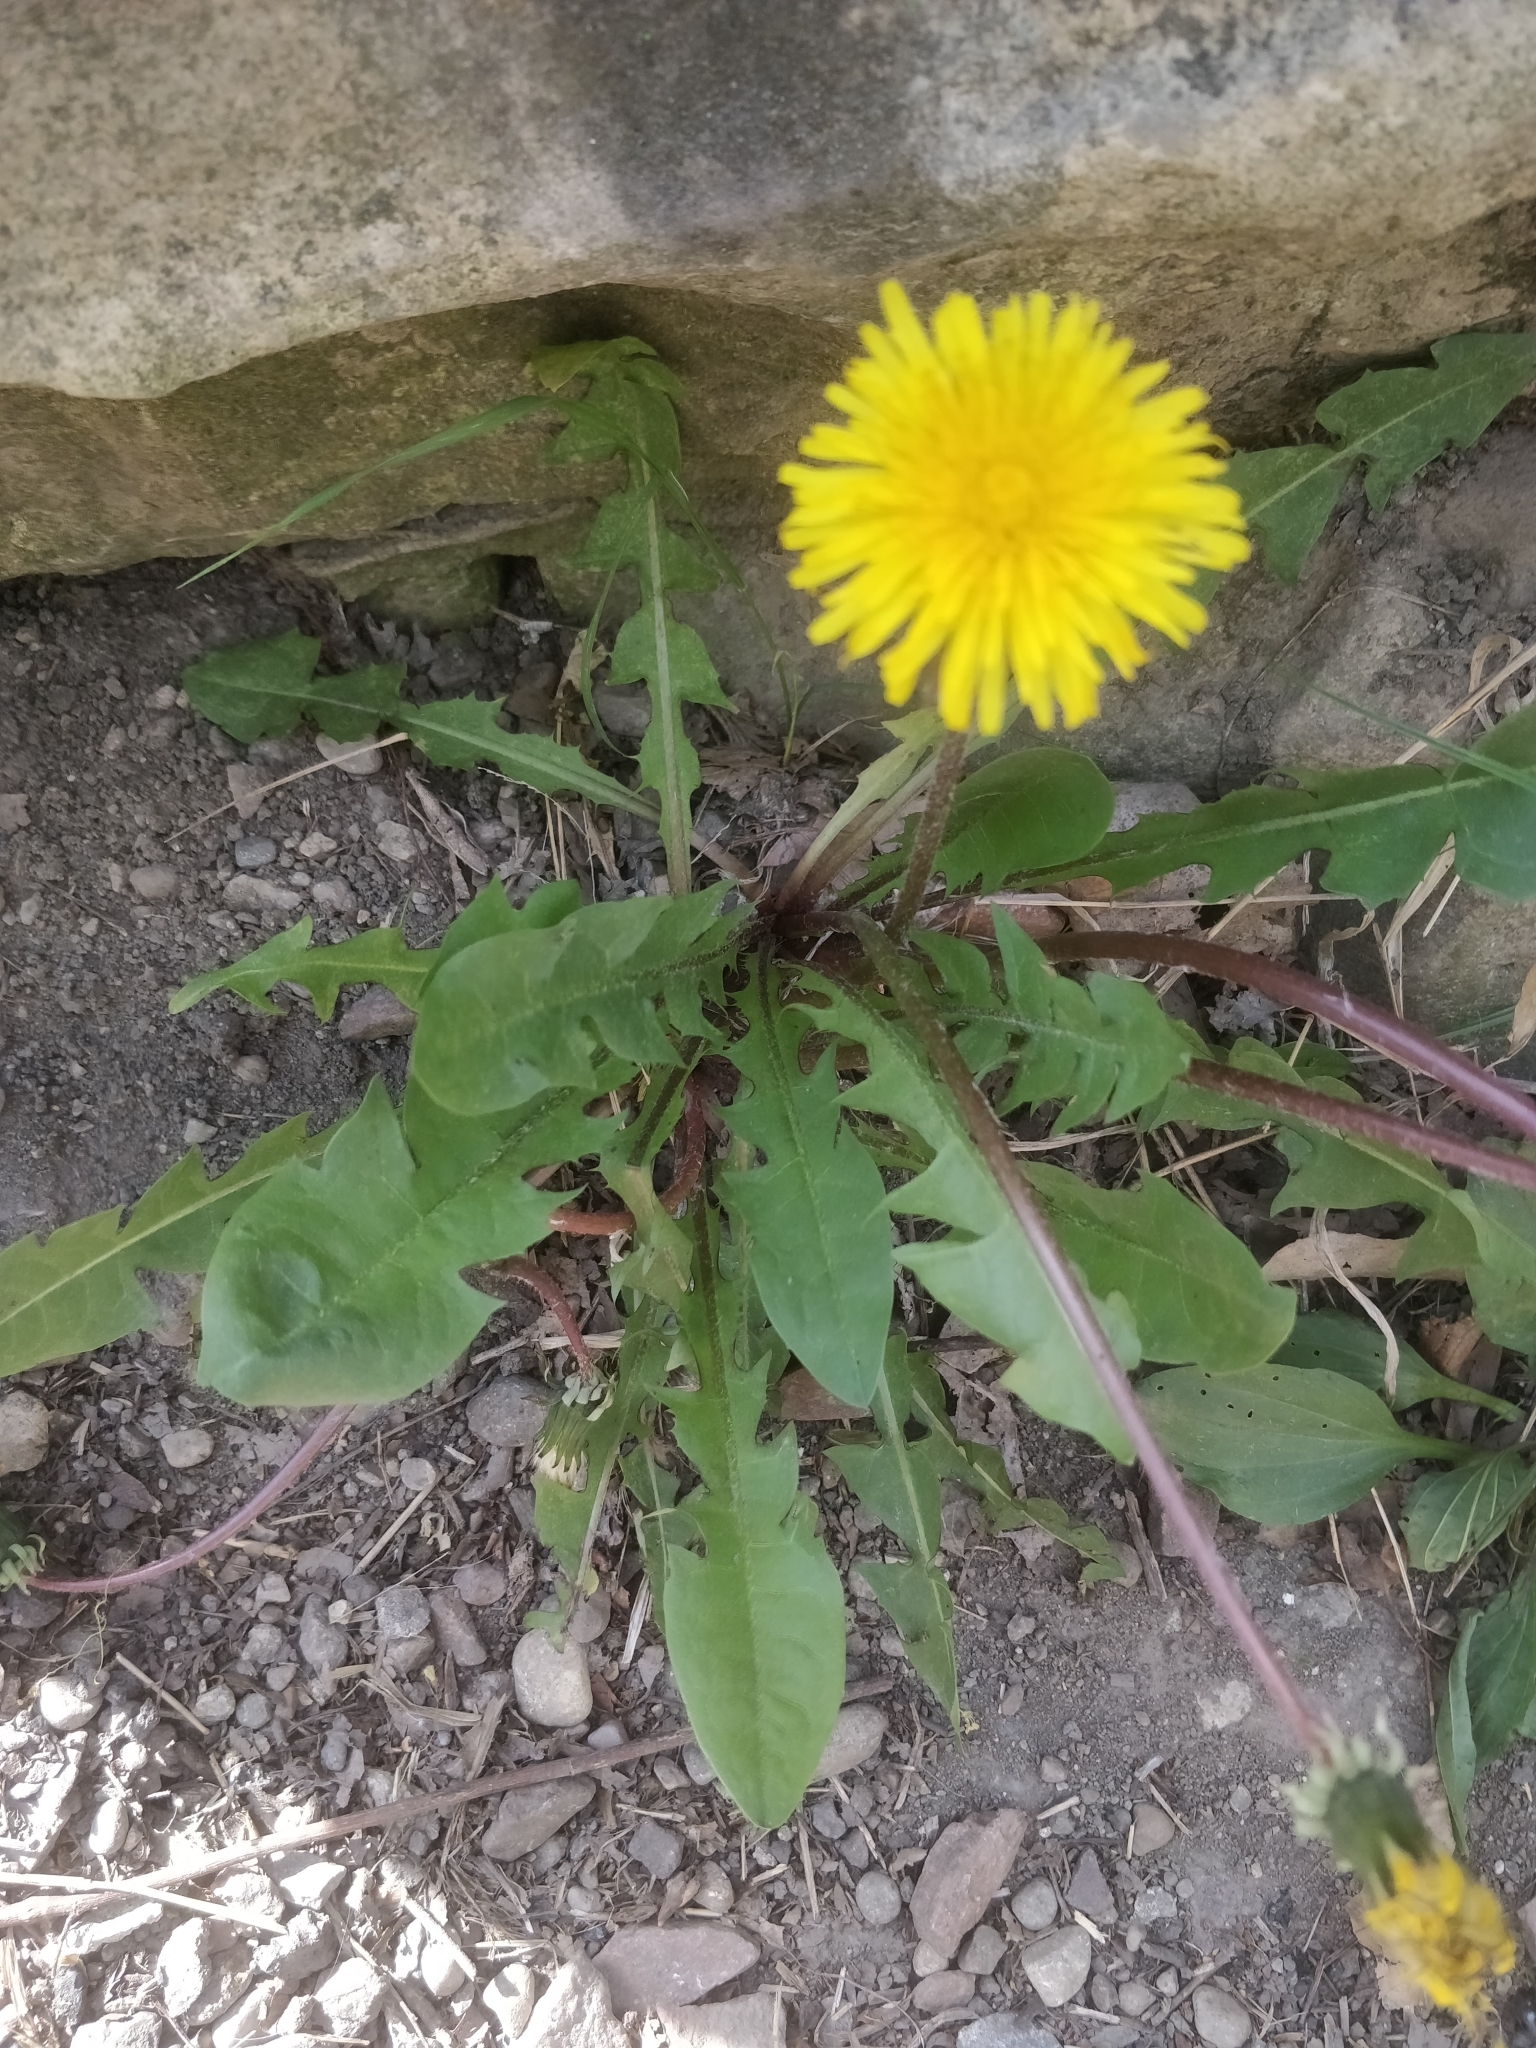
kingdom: Plantae
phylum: Tracheophyta
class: Magnoliopsida
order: Asterales
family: Asteraceae
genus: Taraxacum
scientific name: Taraxacum officinale
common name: Common dandelion
